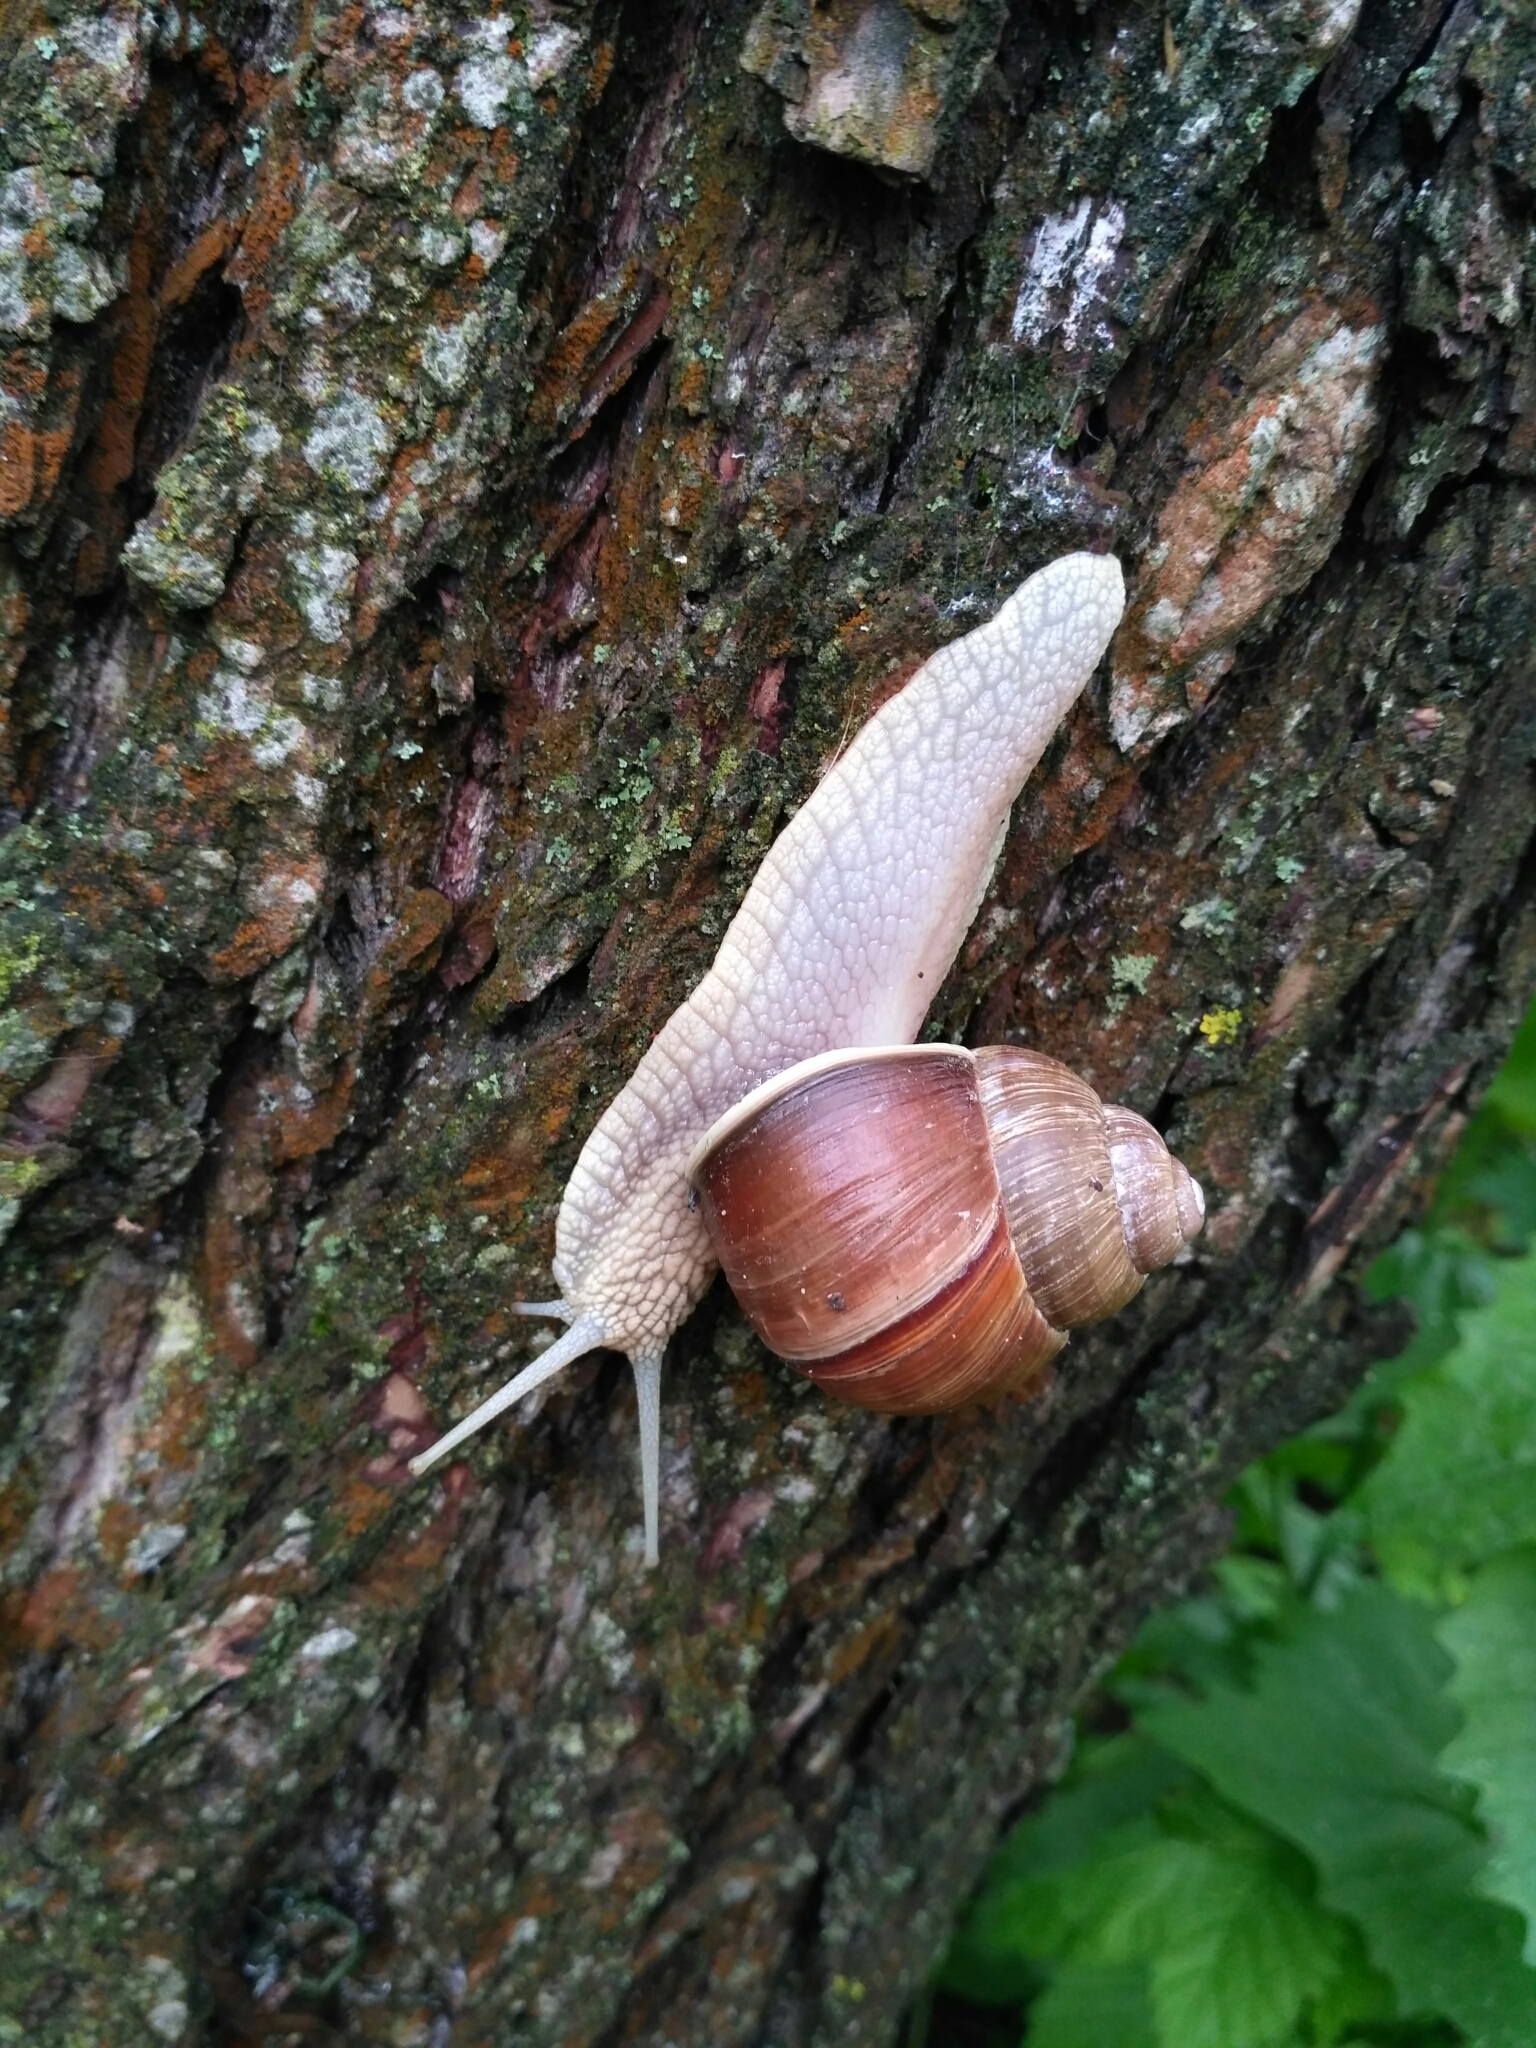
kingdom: Animalia
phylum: Mollusca
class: Gastropoda
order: Stylommatophora
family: Helicidae
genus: Helix
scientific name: Helix pomatia
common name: Roman snail
